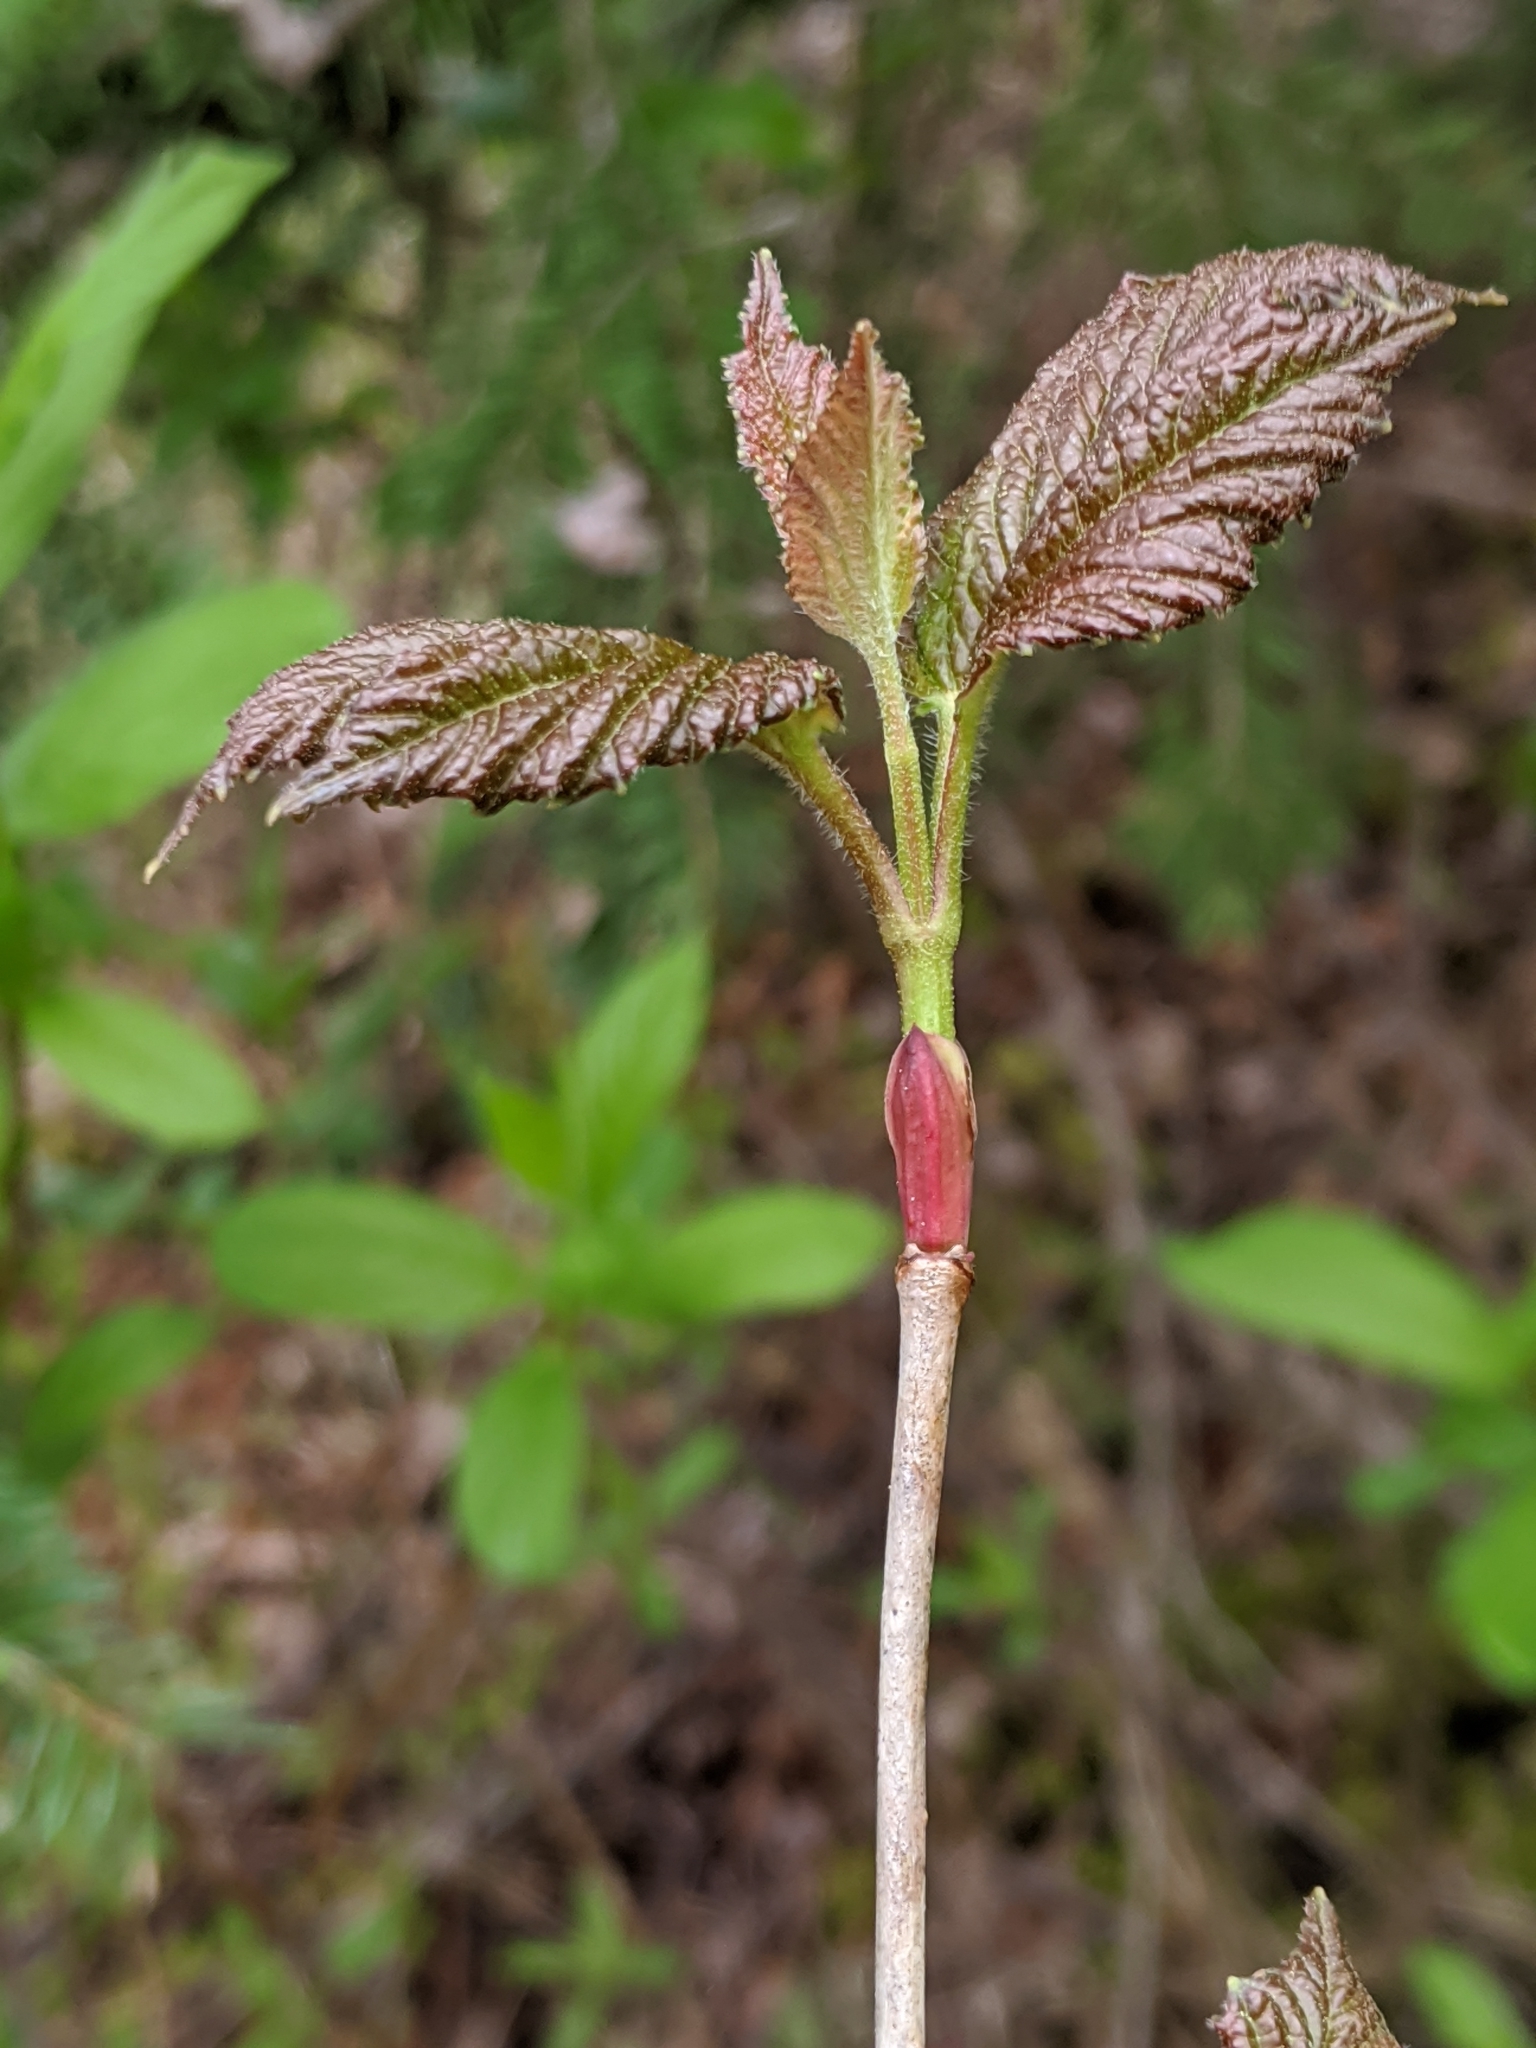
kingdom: Plantae
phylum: Tracheophyta
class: Magnoliopsida
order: Dipsacales
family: Viburnaceae
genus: Viburnum
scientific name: Viburnum edule
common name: Mooseberry
